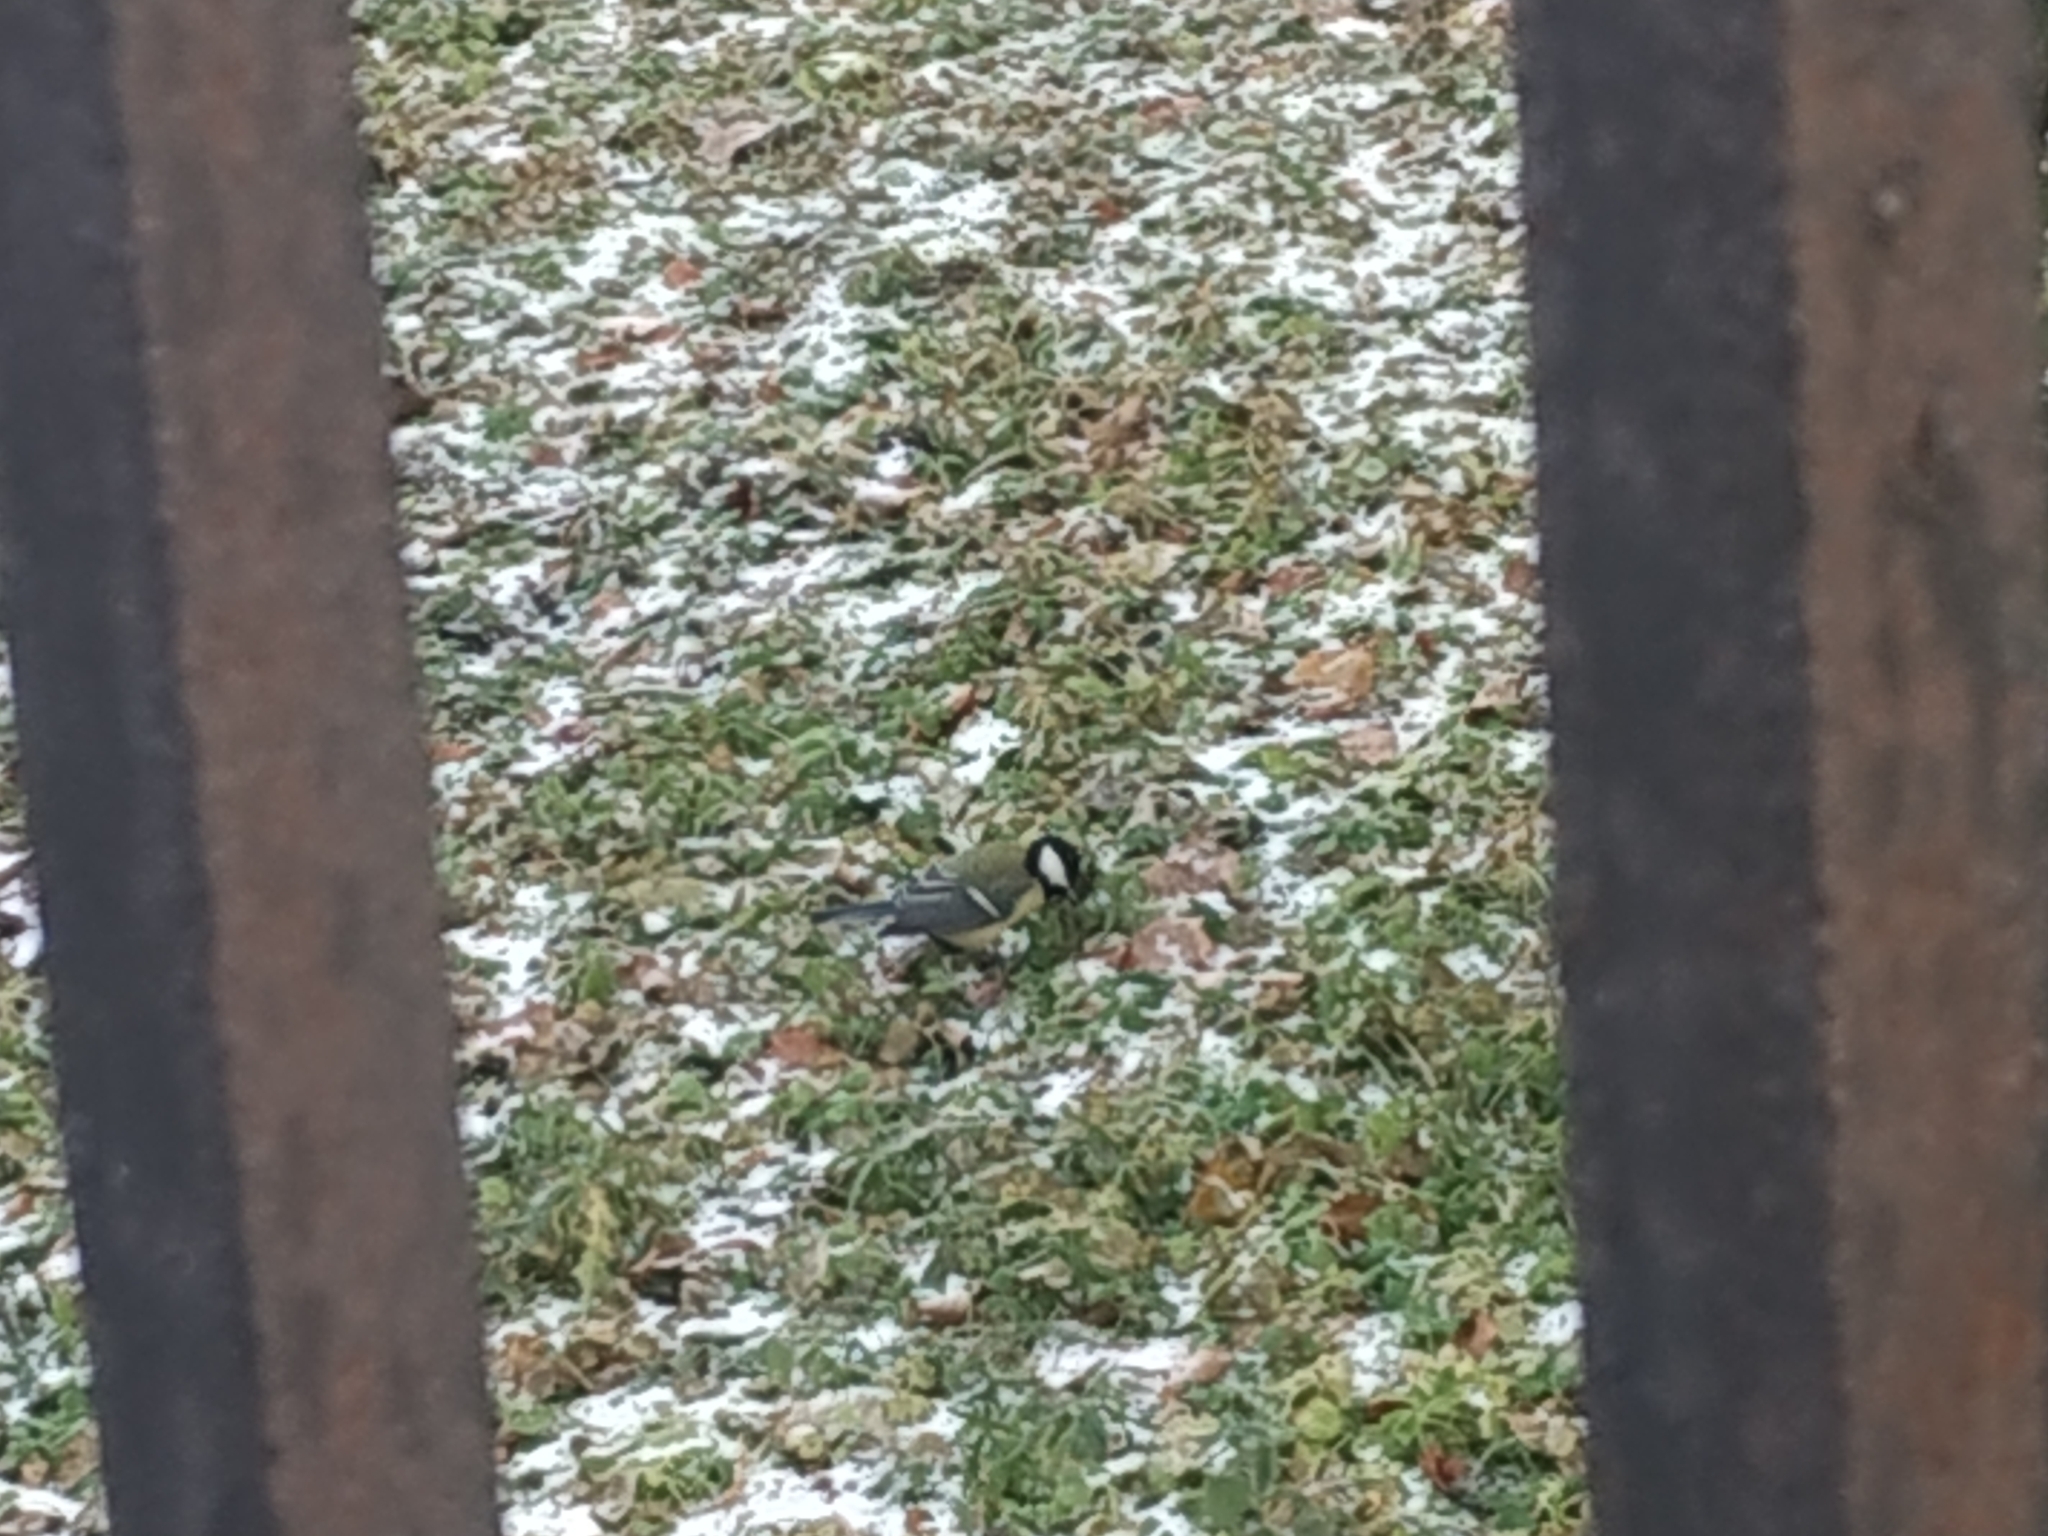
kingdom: Animalia
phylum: Chordata
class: Aves
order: Passeriformes
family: Paridae
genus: Parus
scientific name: Parus major
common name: Great tit
